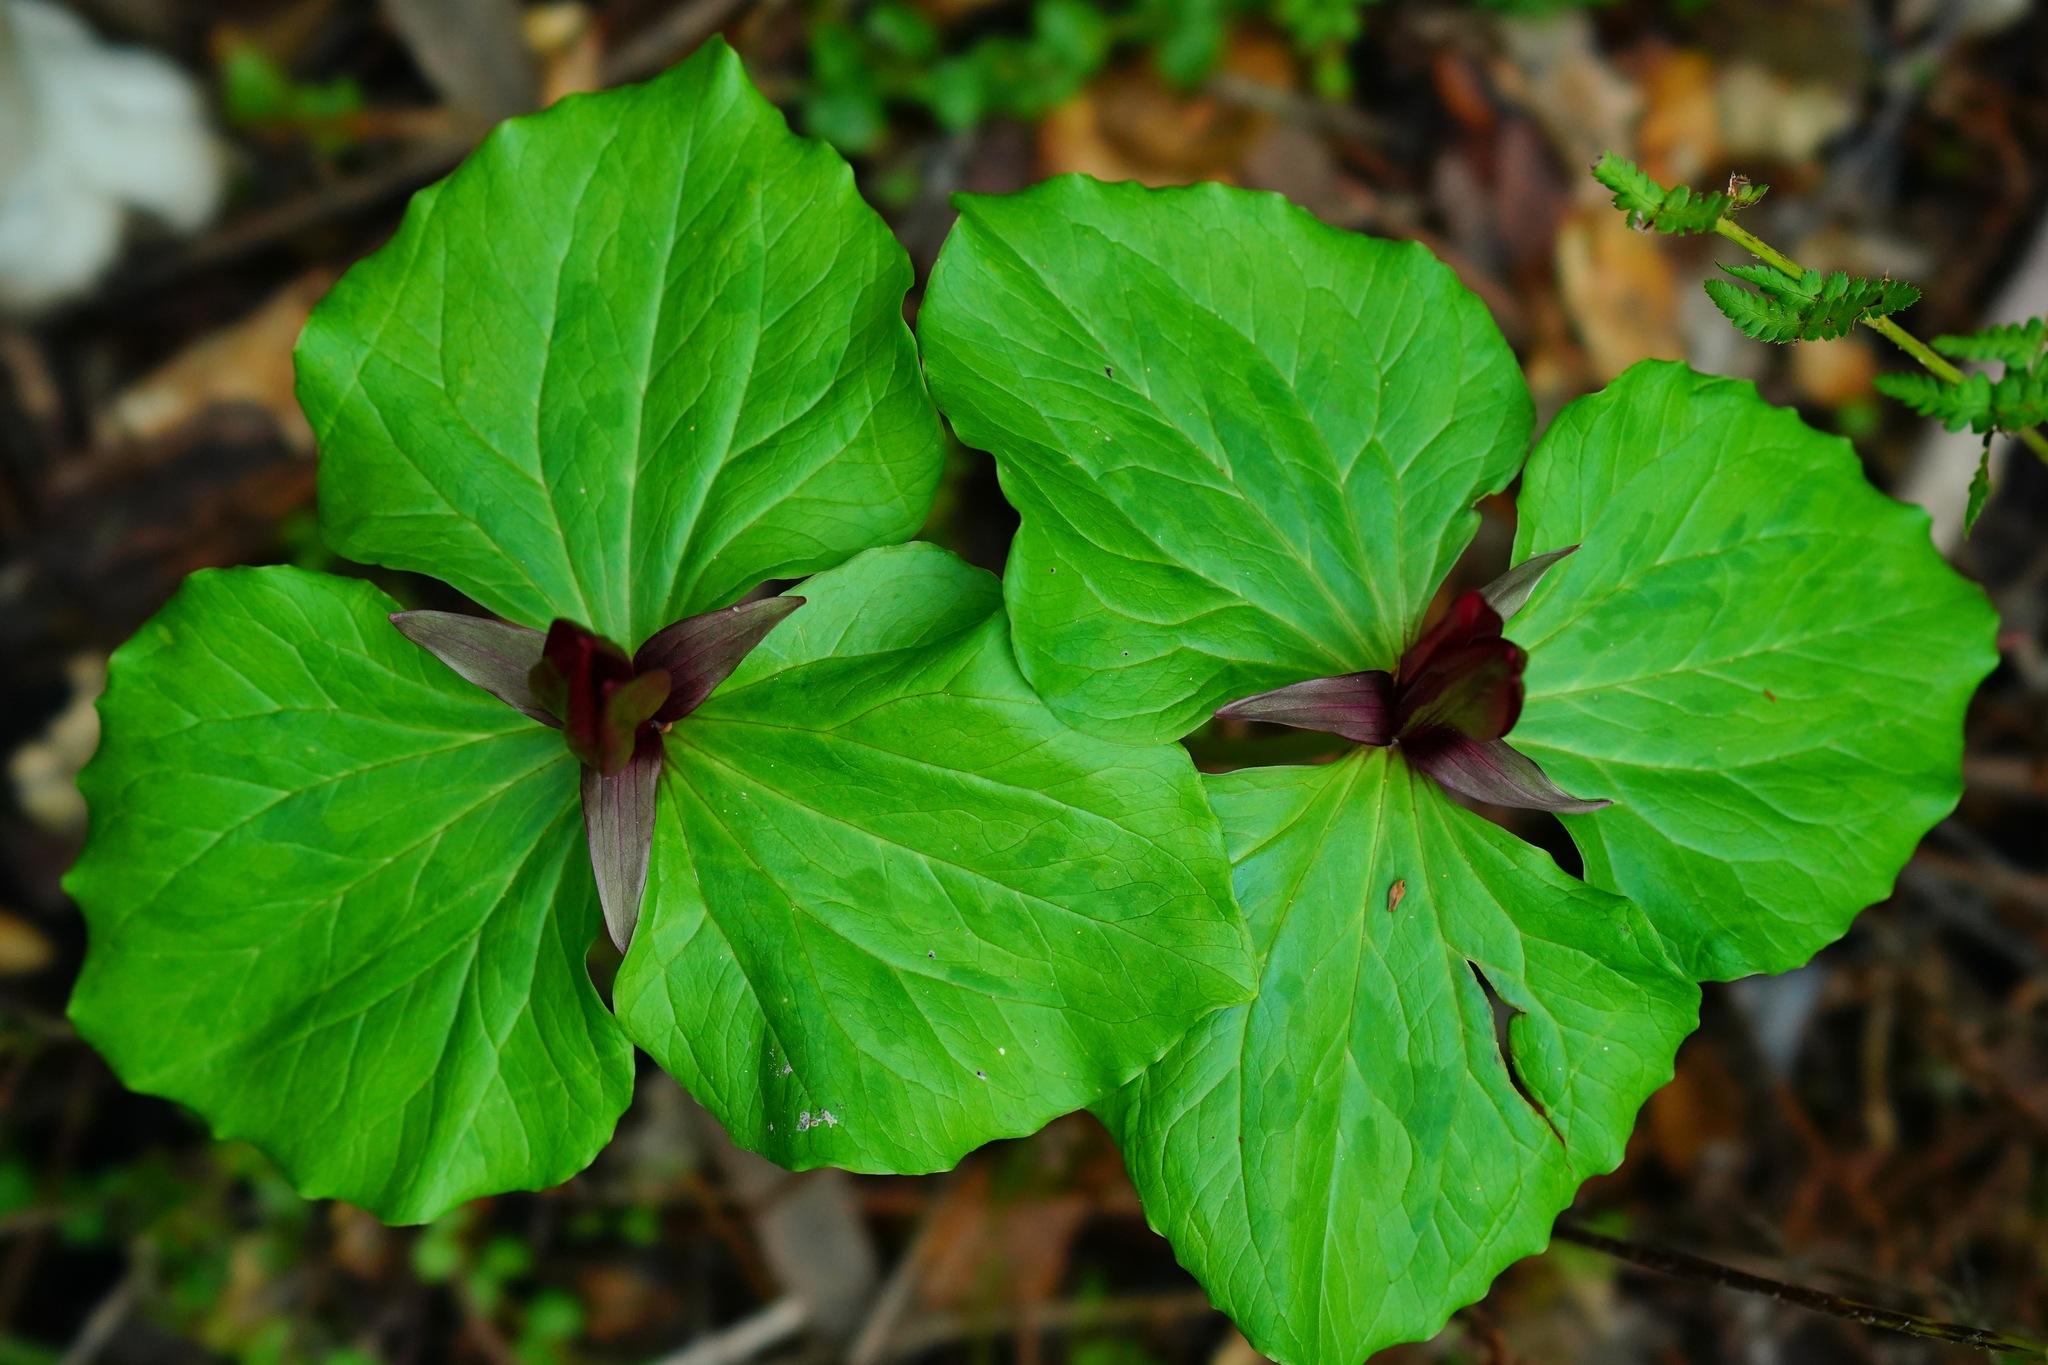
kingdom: Plantae
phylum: Tracheophyta
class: Liliopsida
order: Liliales
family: Melanthiaceae
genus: Trillium
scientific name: Trillium chloropetalum
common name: Giant trillium
